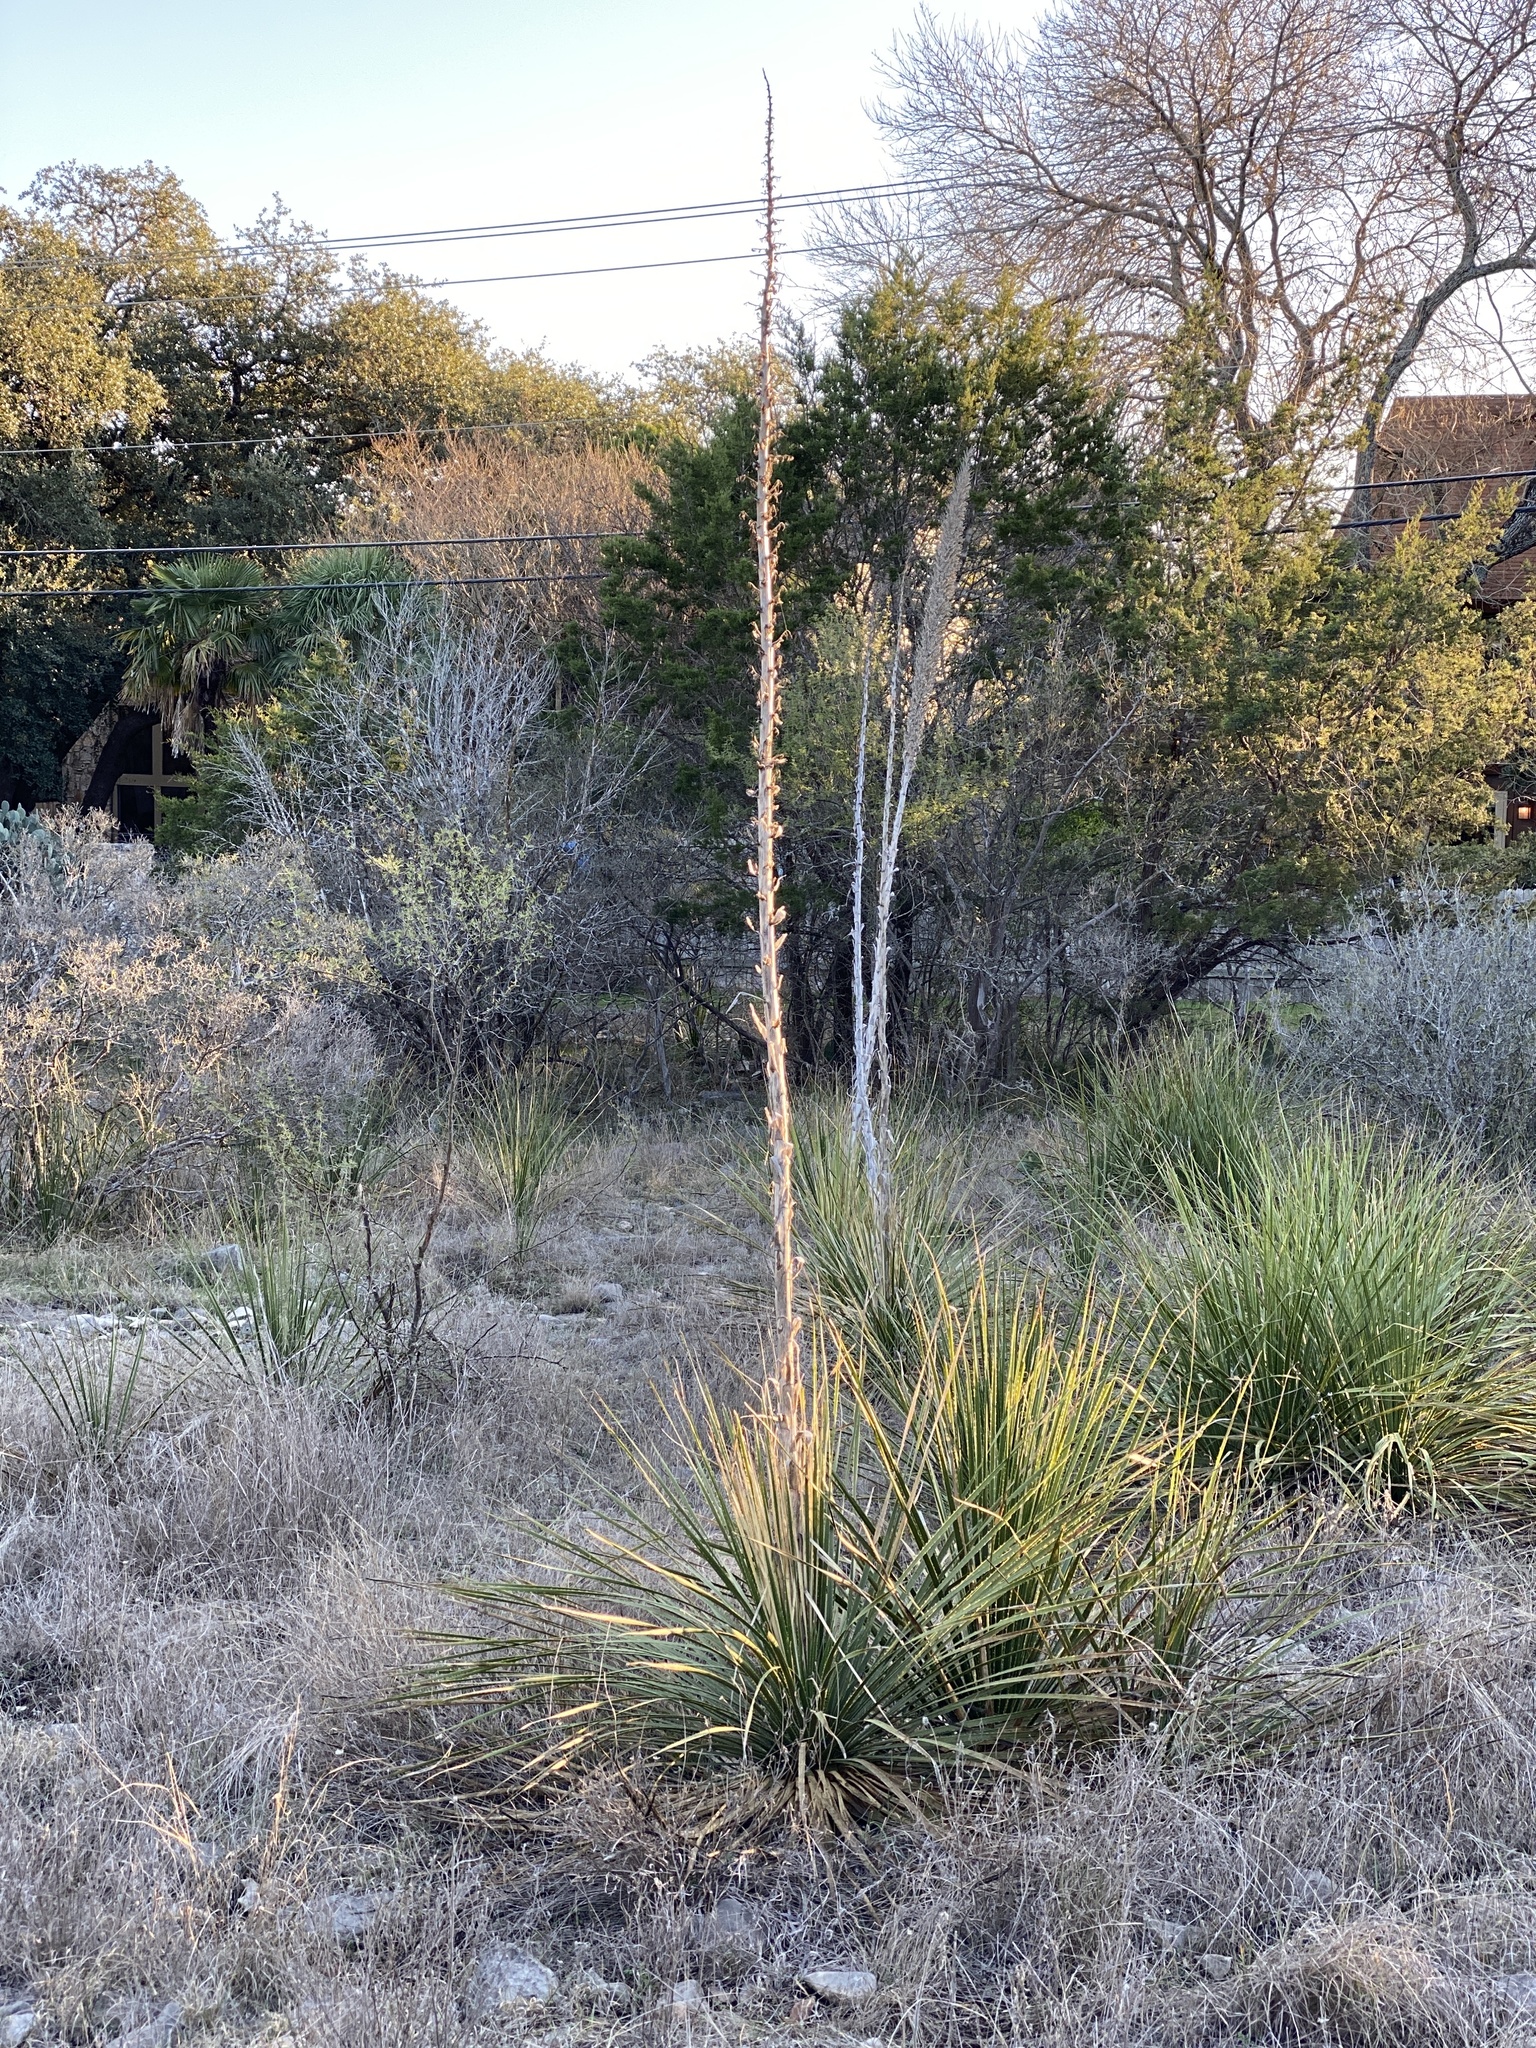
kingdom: Plantae
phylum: Tracheophyta
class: Liliopsida
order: Asparagales
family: Asparagaceae
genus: Dasylirion
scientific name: Dasylirion texanum
